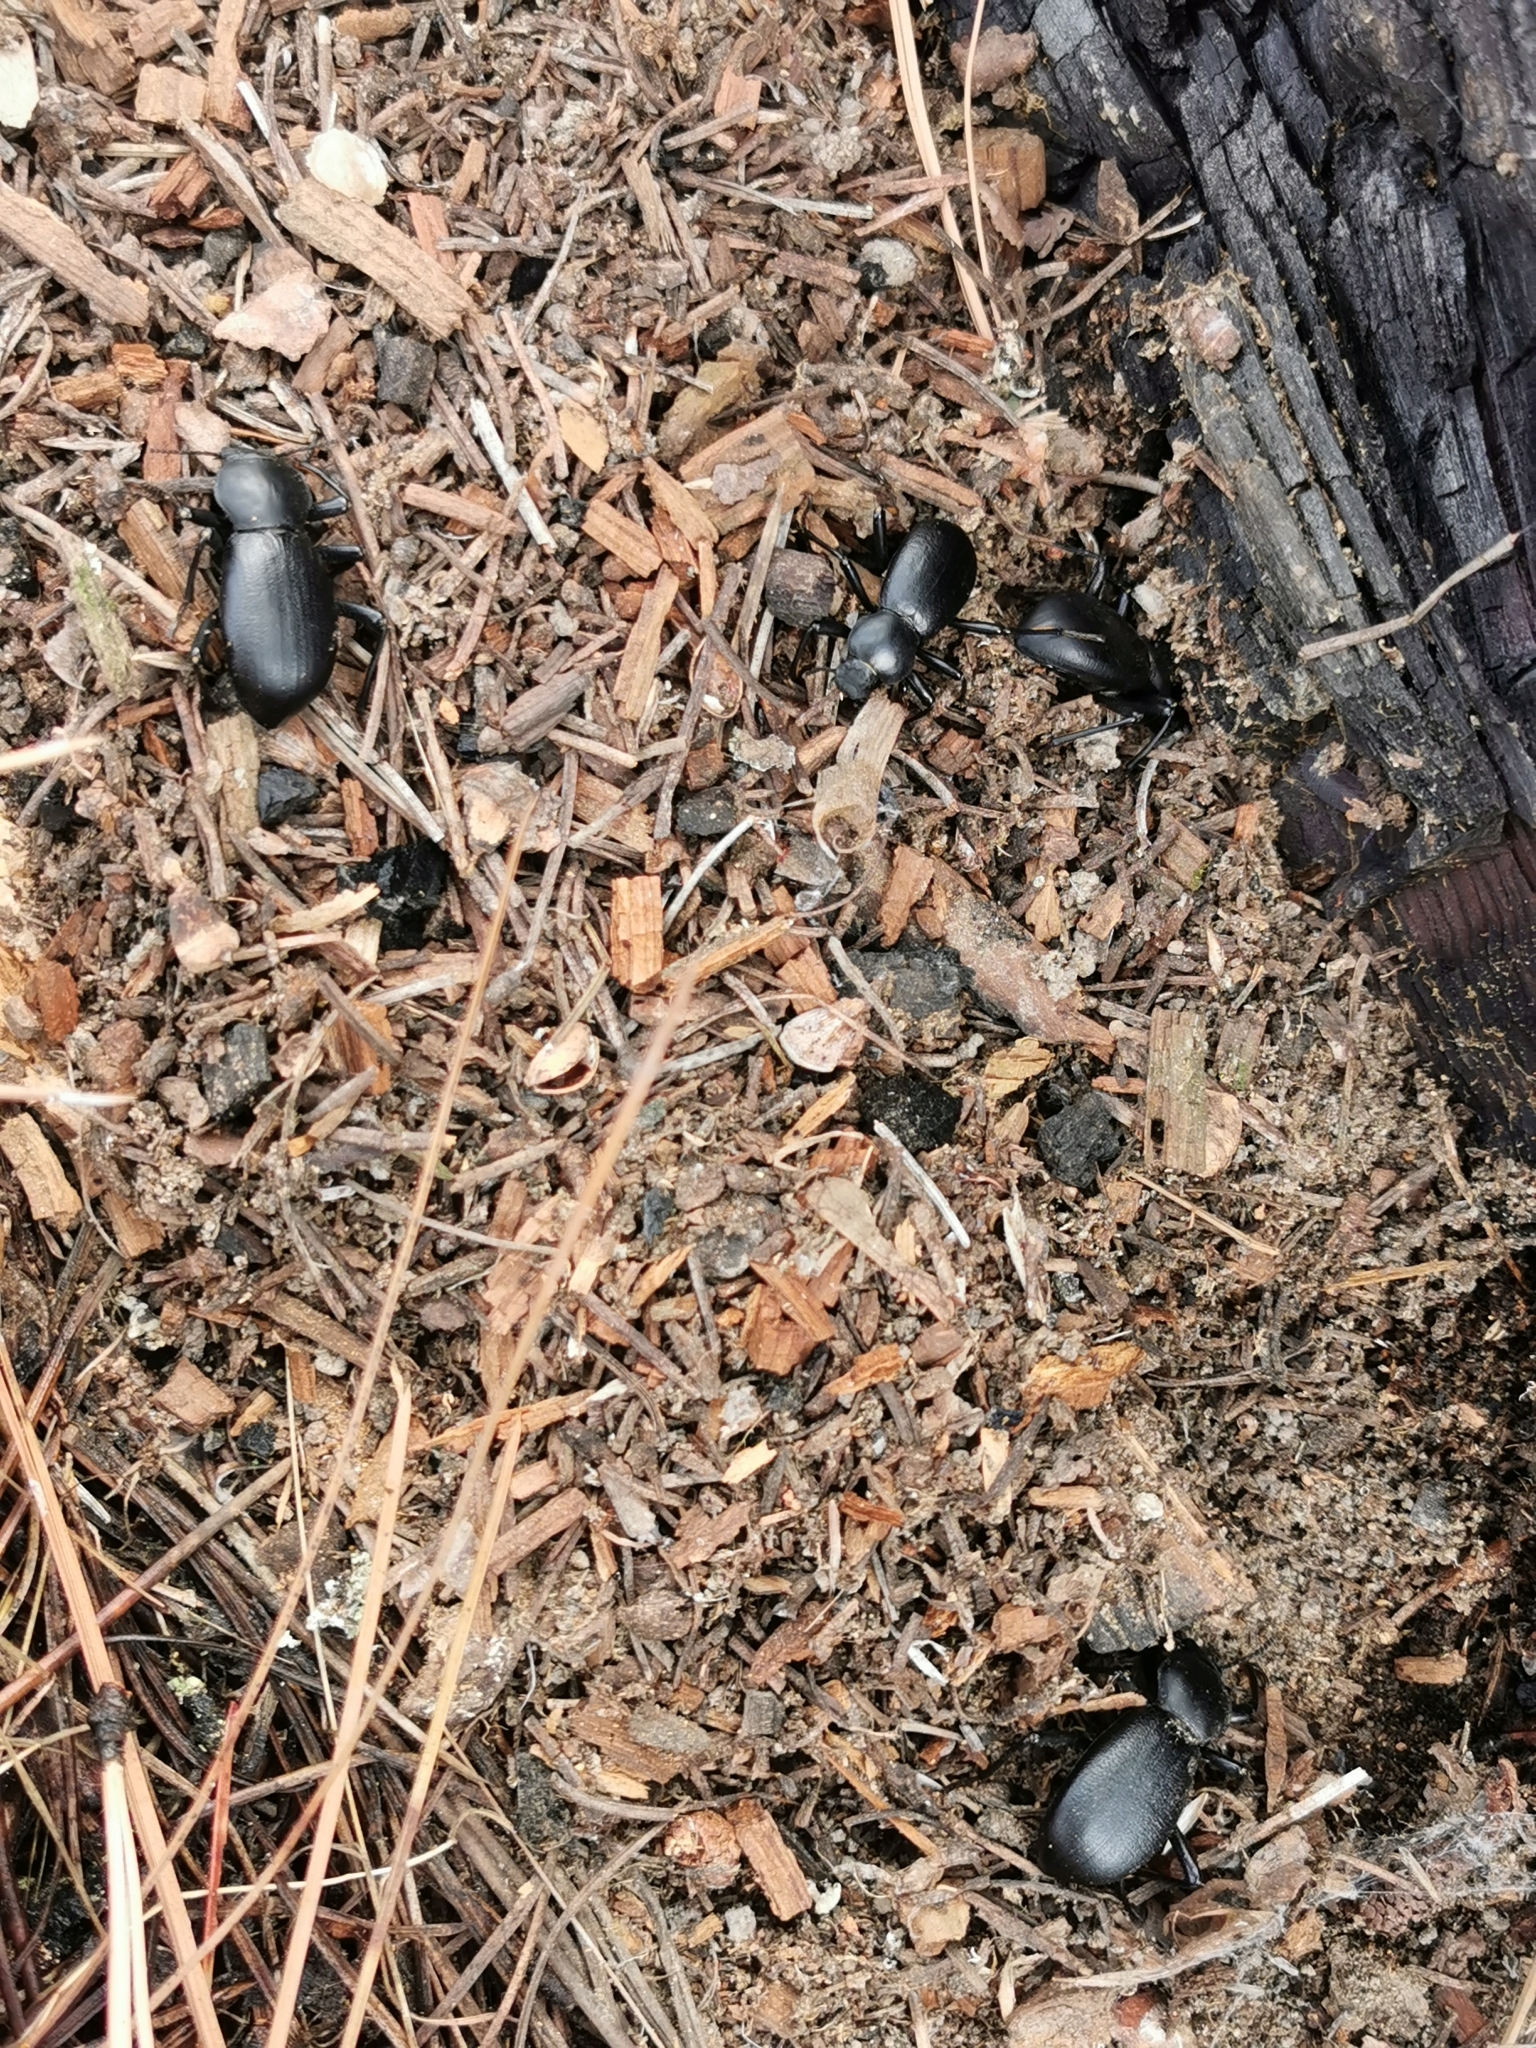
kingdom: Animalia
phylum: Arthropoda
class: Insecta
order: Coleoptera
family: Tenebrionidae
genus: Coelocnemis
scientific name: Coelocnemis dilaticollis
